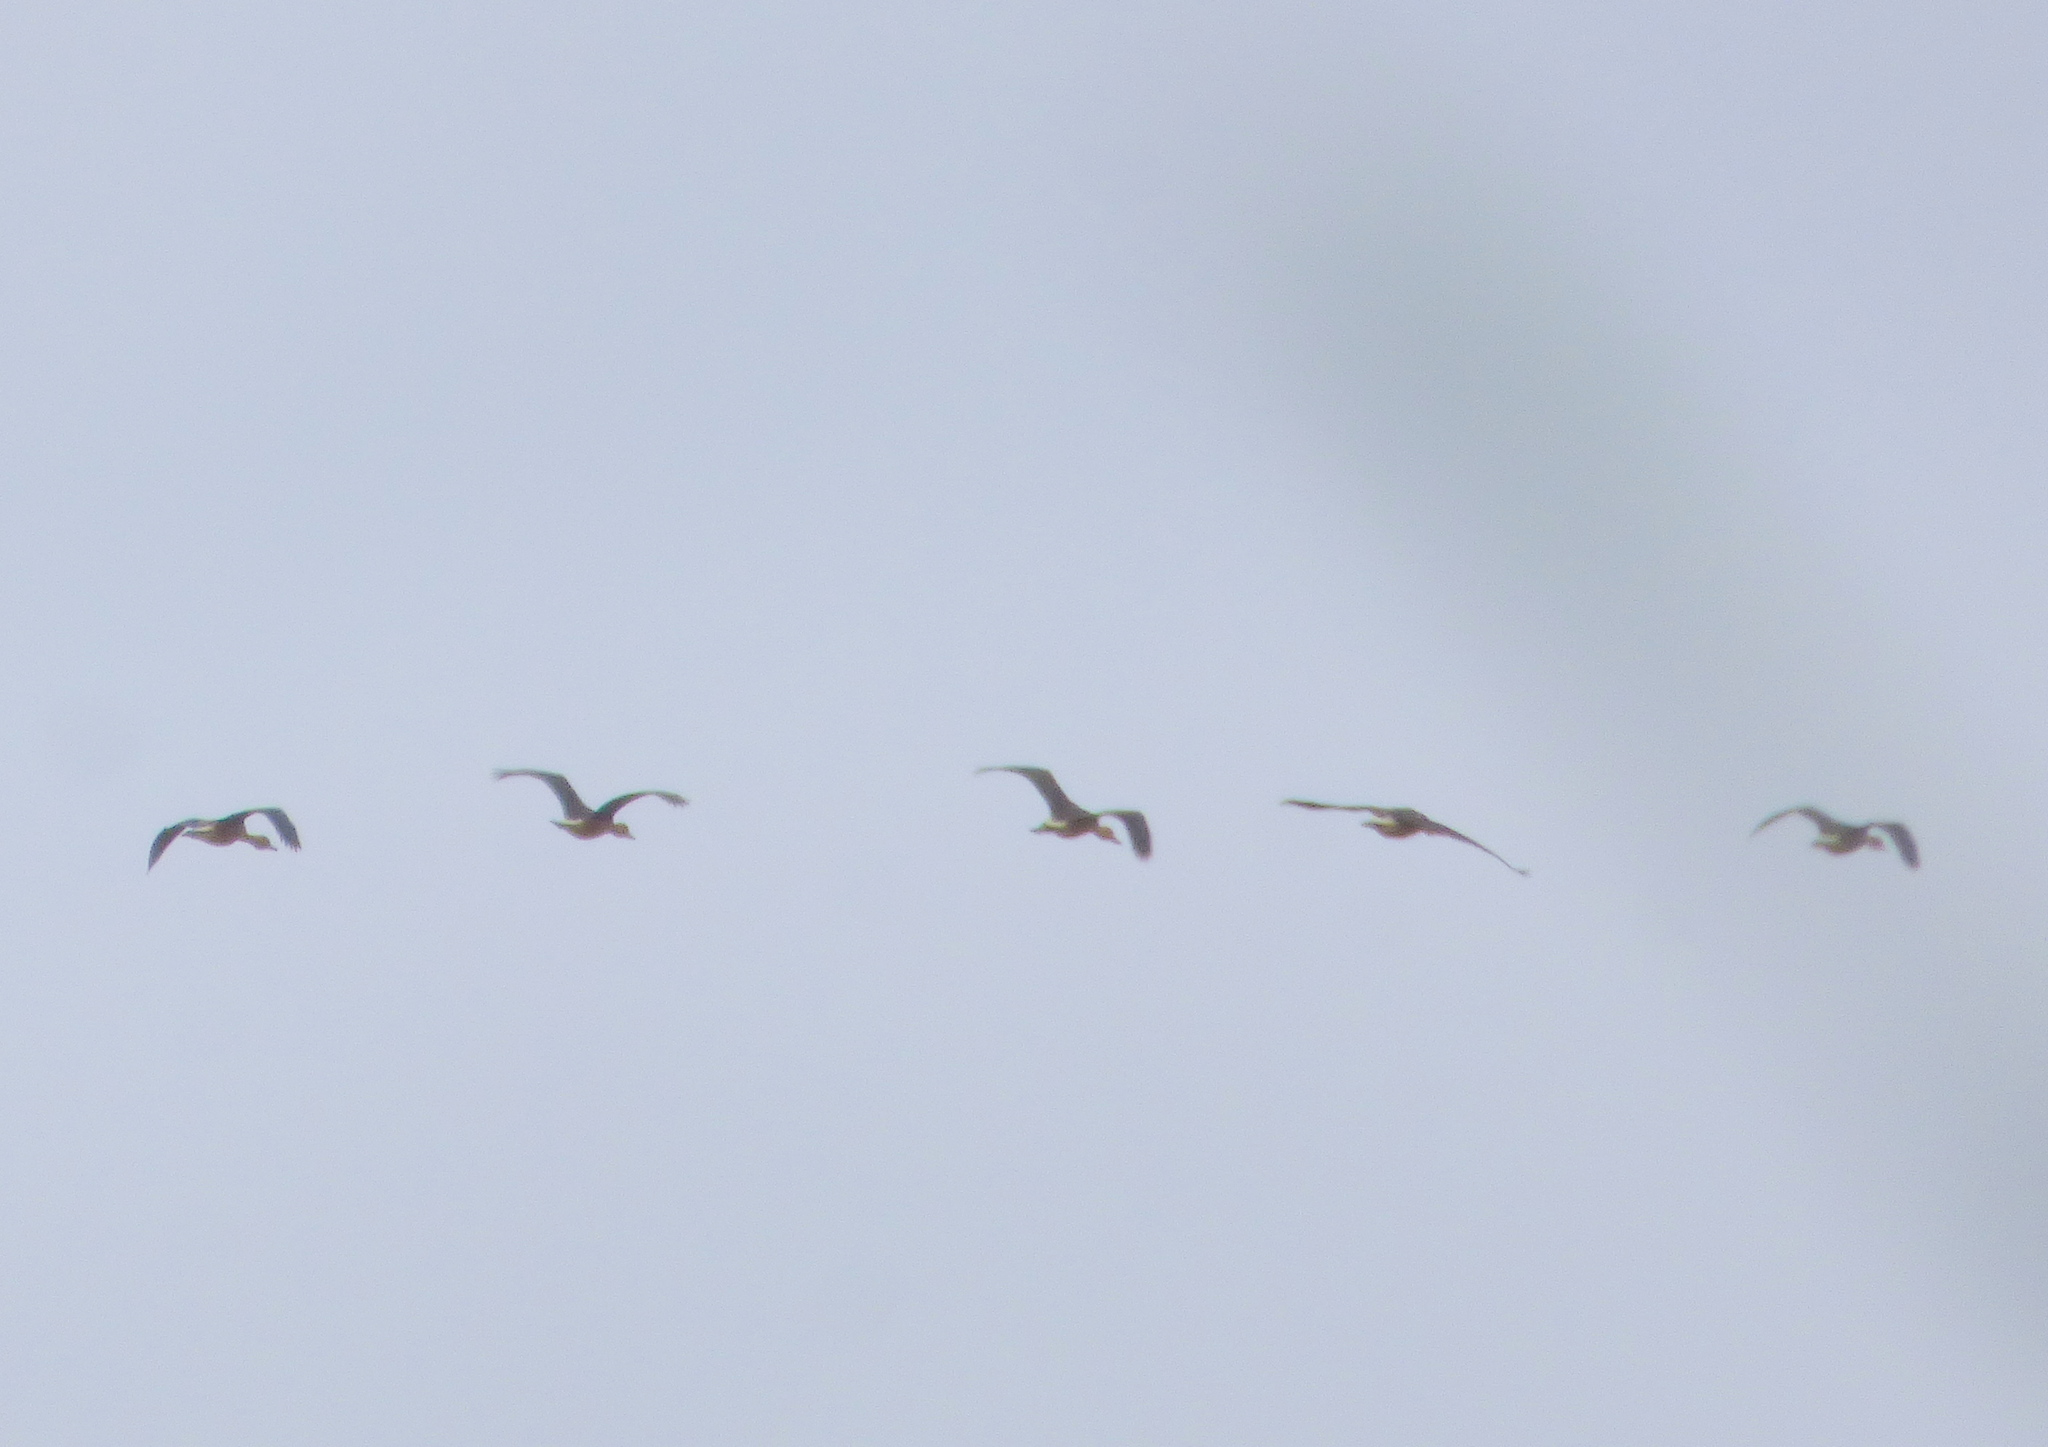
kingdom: Animalia
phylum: Chordata
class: Aves
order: Anseriformes
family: Anatidae
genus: Dendrocygna
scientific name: Dendrocygna bicolor
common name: Fulvous whistling duck
